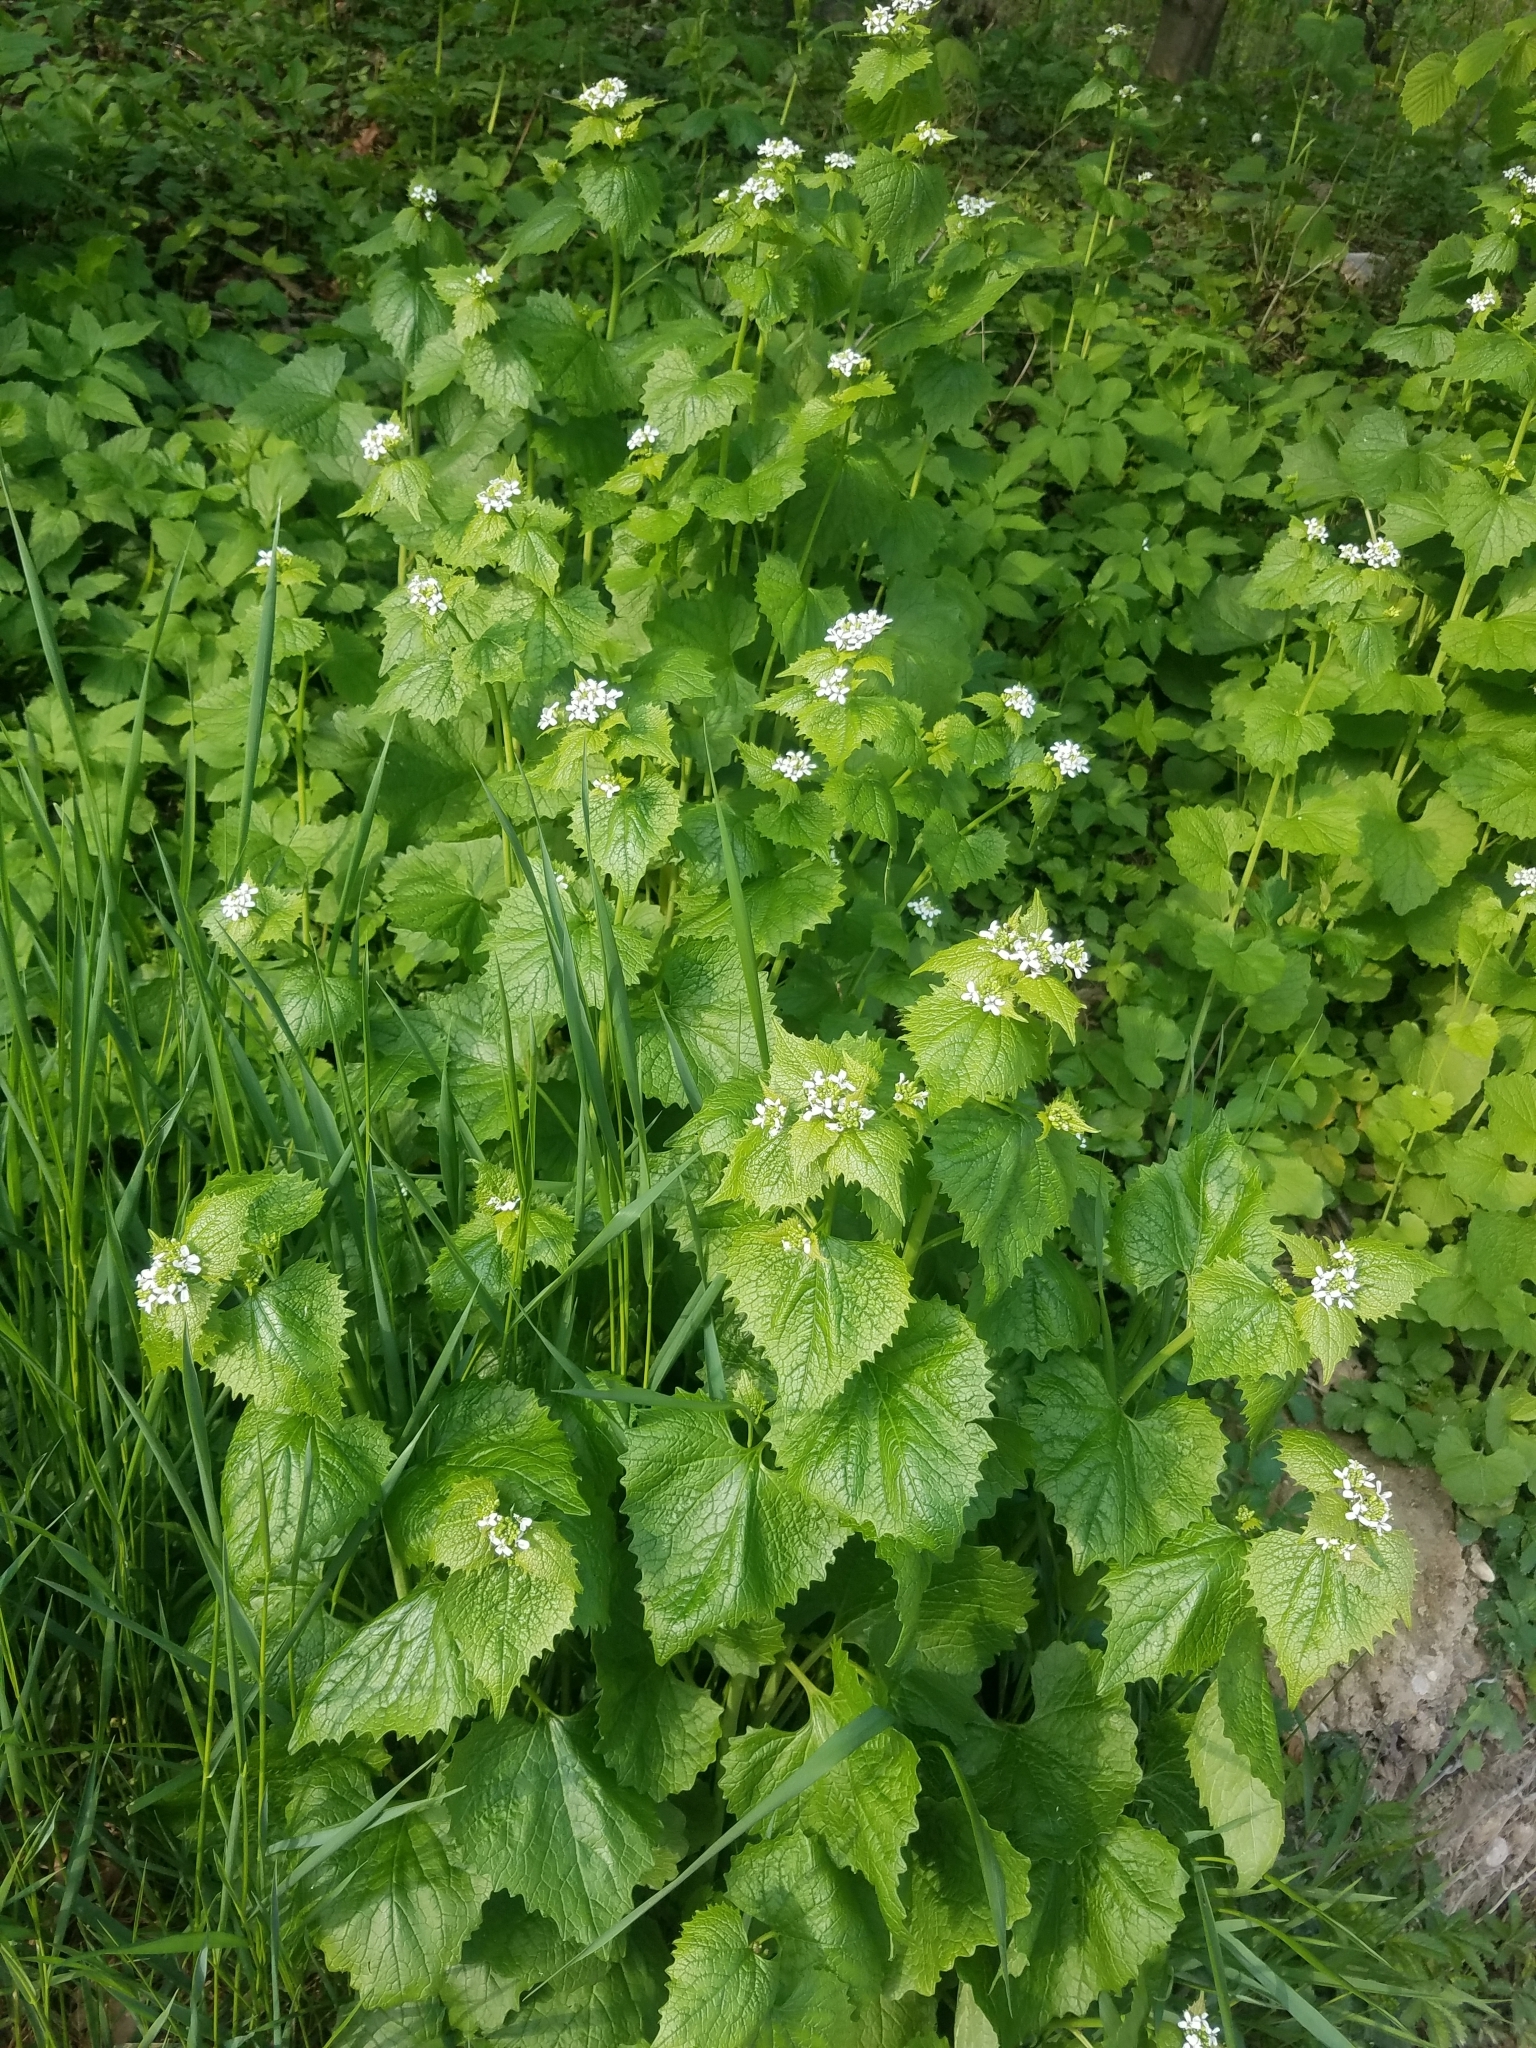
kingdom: Plantae
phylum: Tracheophyta
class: Magnoliopsida
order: Brassicales
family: Brassicaceae
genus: Alliaria
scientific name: Alliaria petiolata
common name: Garlic mustard
